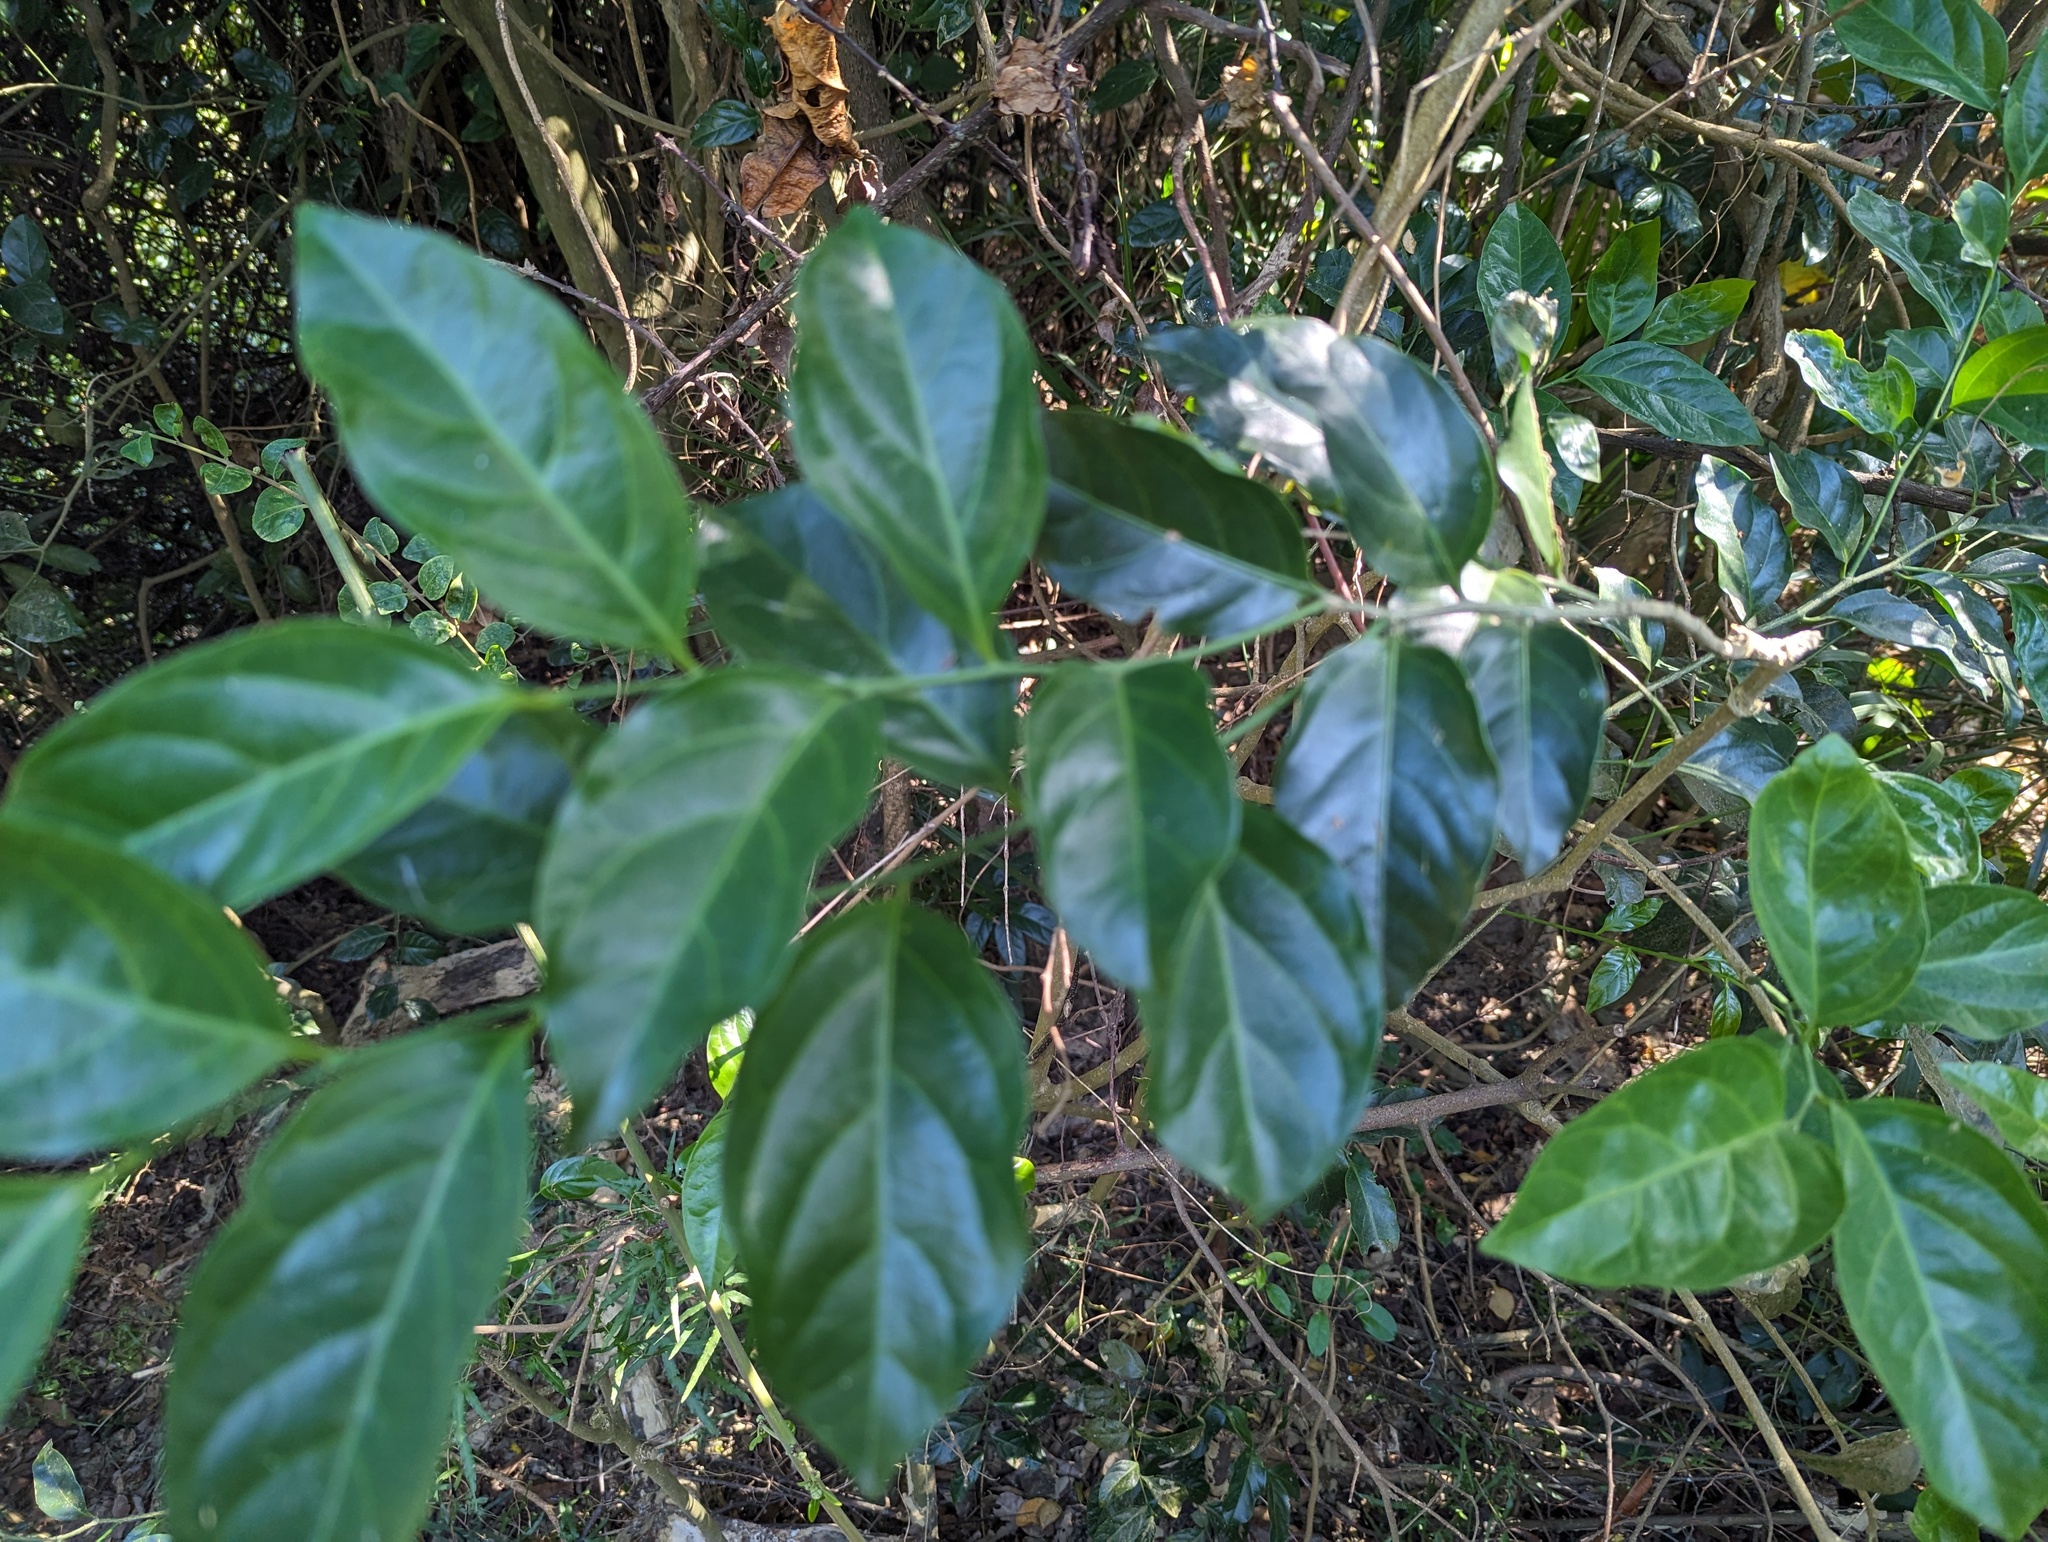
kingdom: Plantae
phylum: Tracheophyta
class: Magnoliopsida
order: Santalales
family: Opiliaceae
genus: Champereia
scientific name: Champereia manillana
